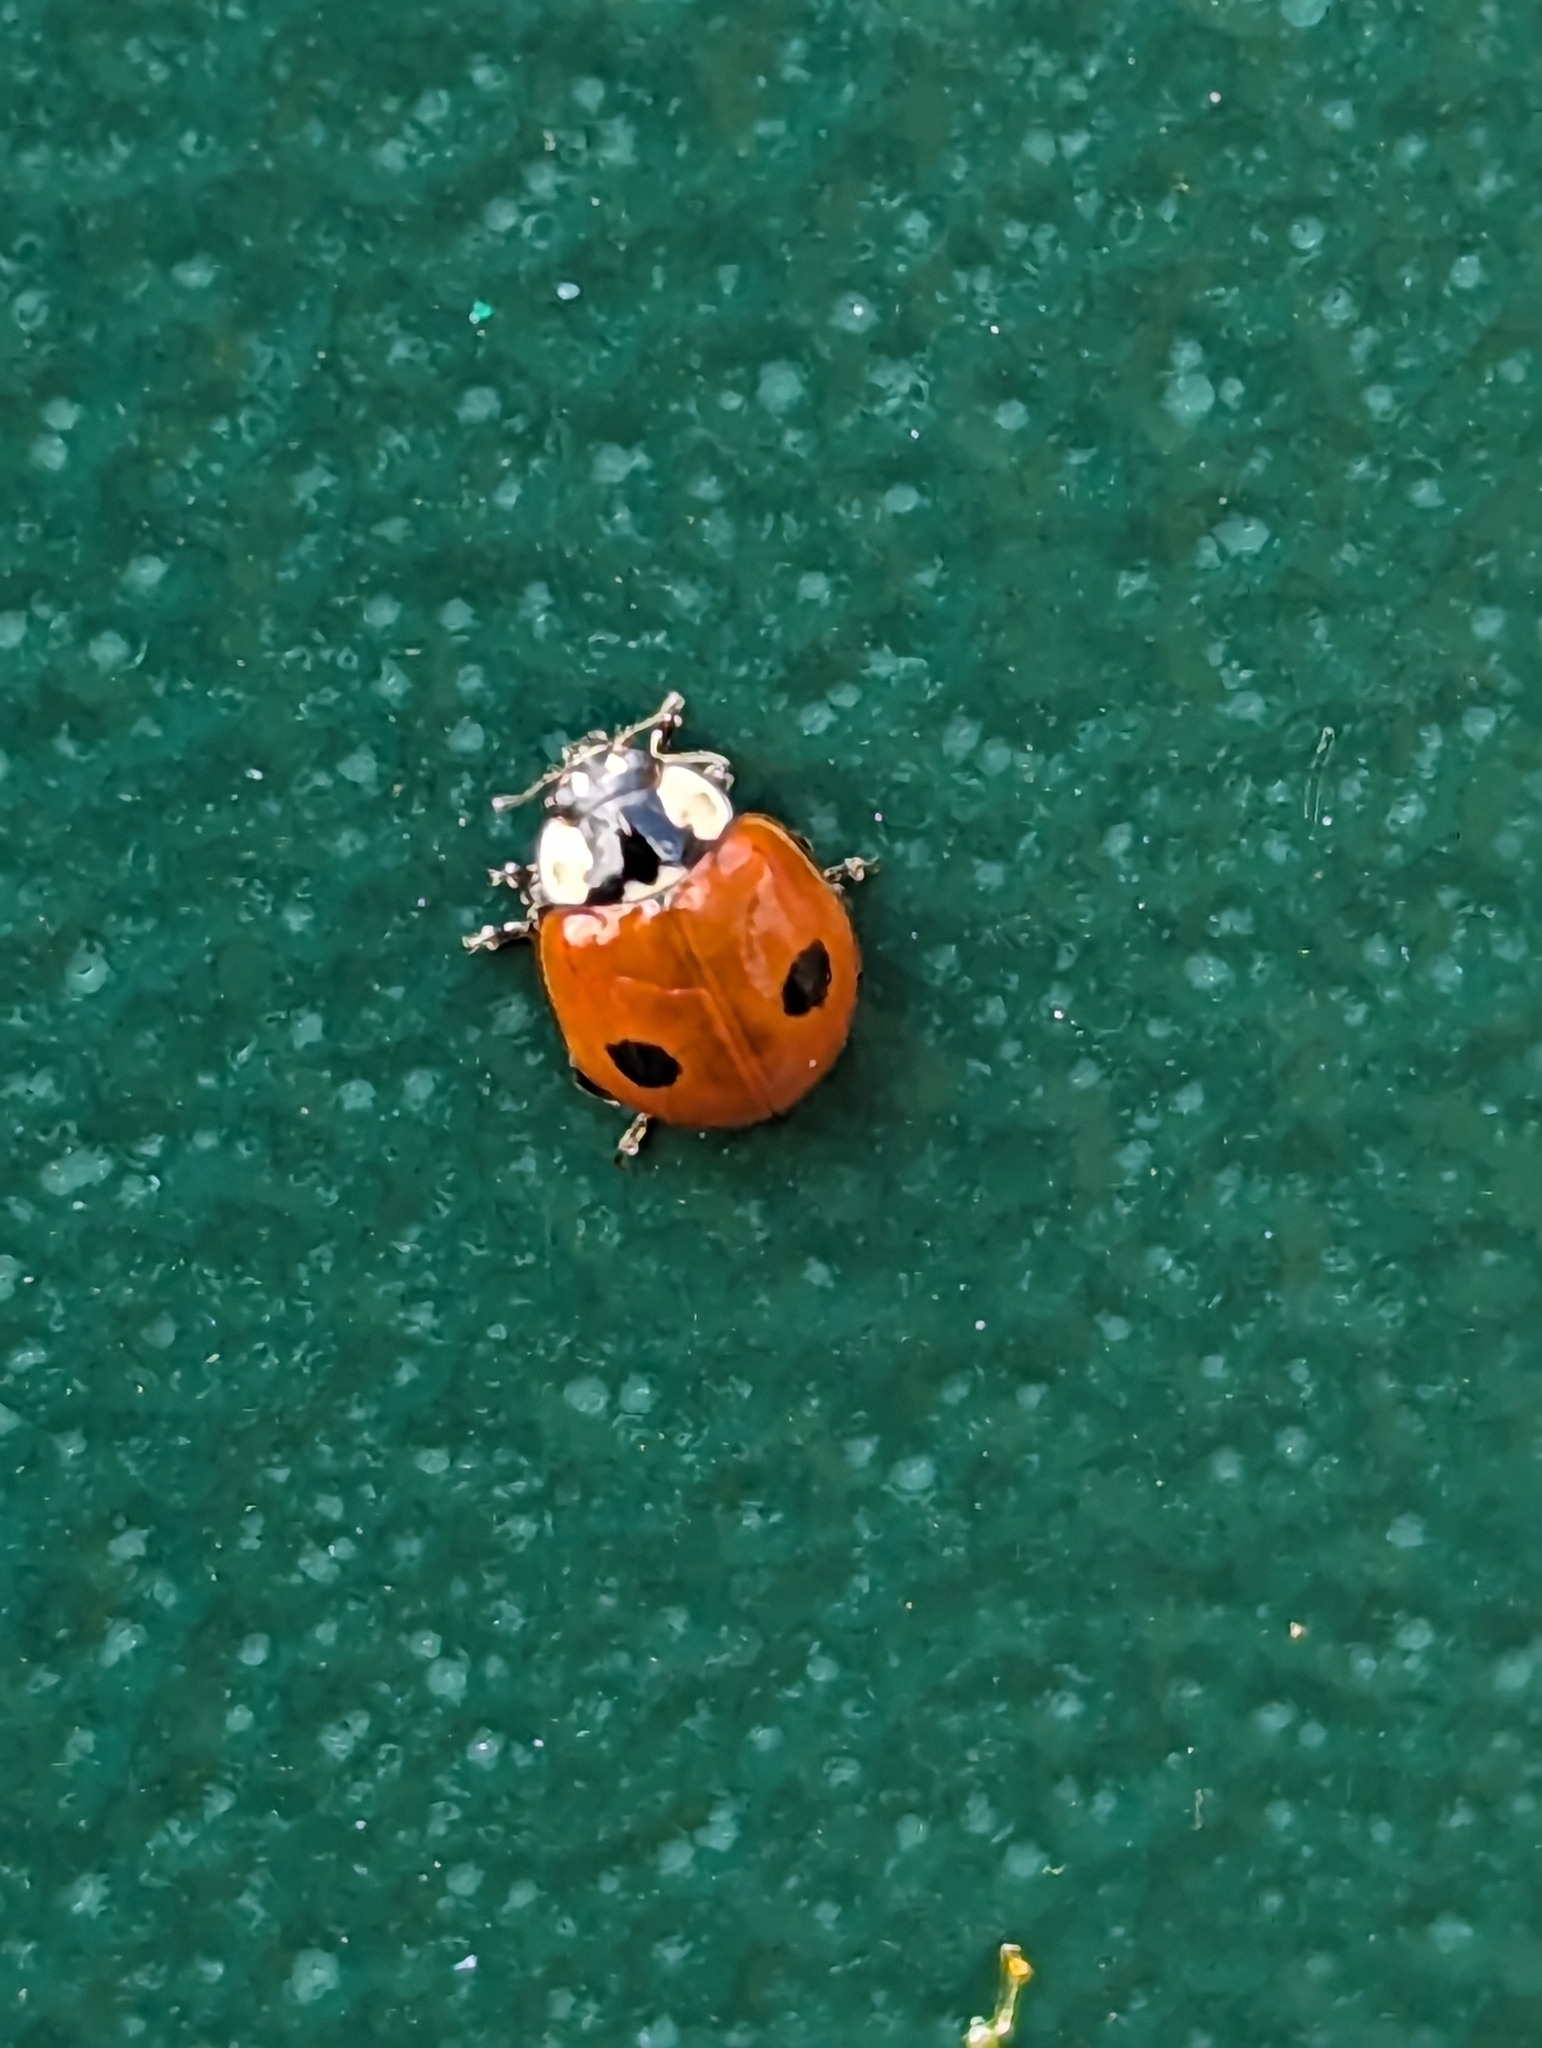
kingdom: Animalia
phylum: Arthropoda
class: Insecta
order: Coleoptera
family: Coccinellidae
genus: Adalia
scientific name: Adalia bipunctata
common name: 2-spot ladybird
